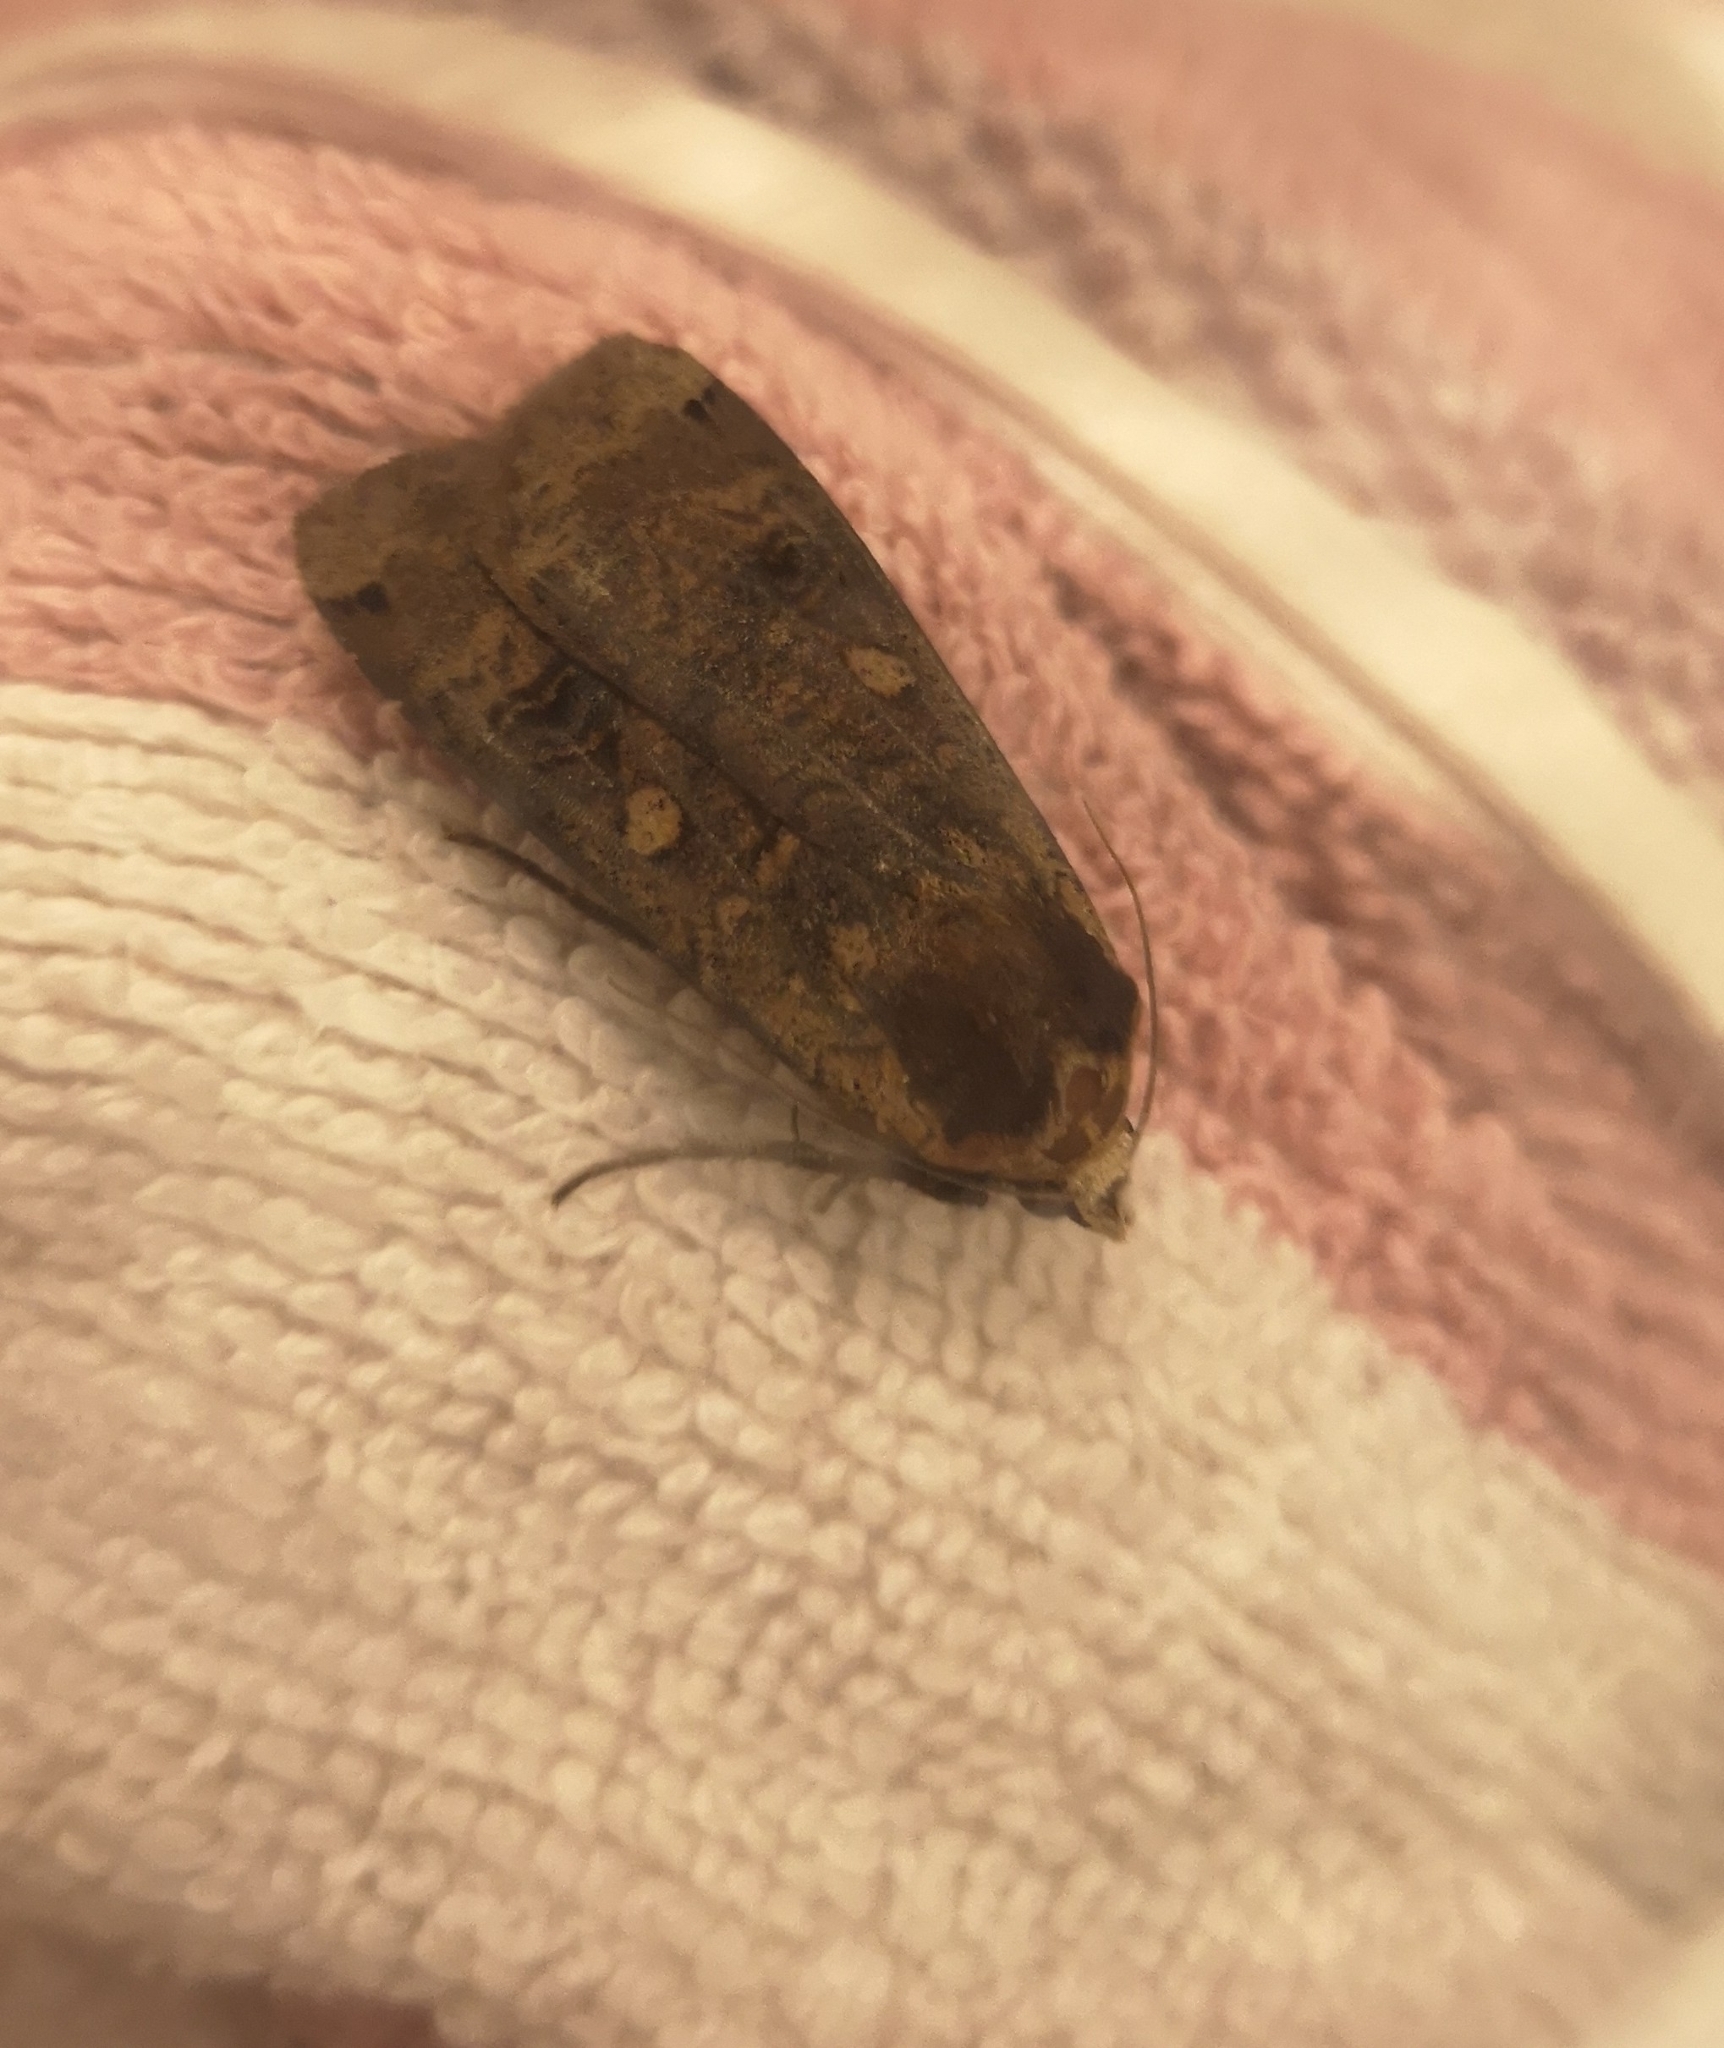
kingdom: Animalia
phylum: Arthropoda
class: Insecta
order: Lepidoptera
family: Noctuidae
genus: Noctua
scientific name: Noctua pronuba
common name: Large yellow underwing
